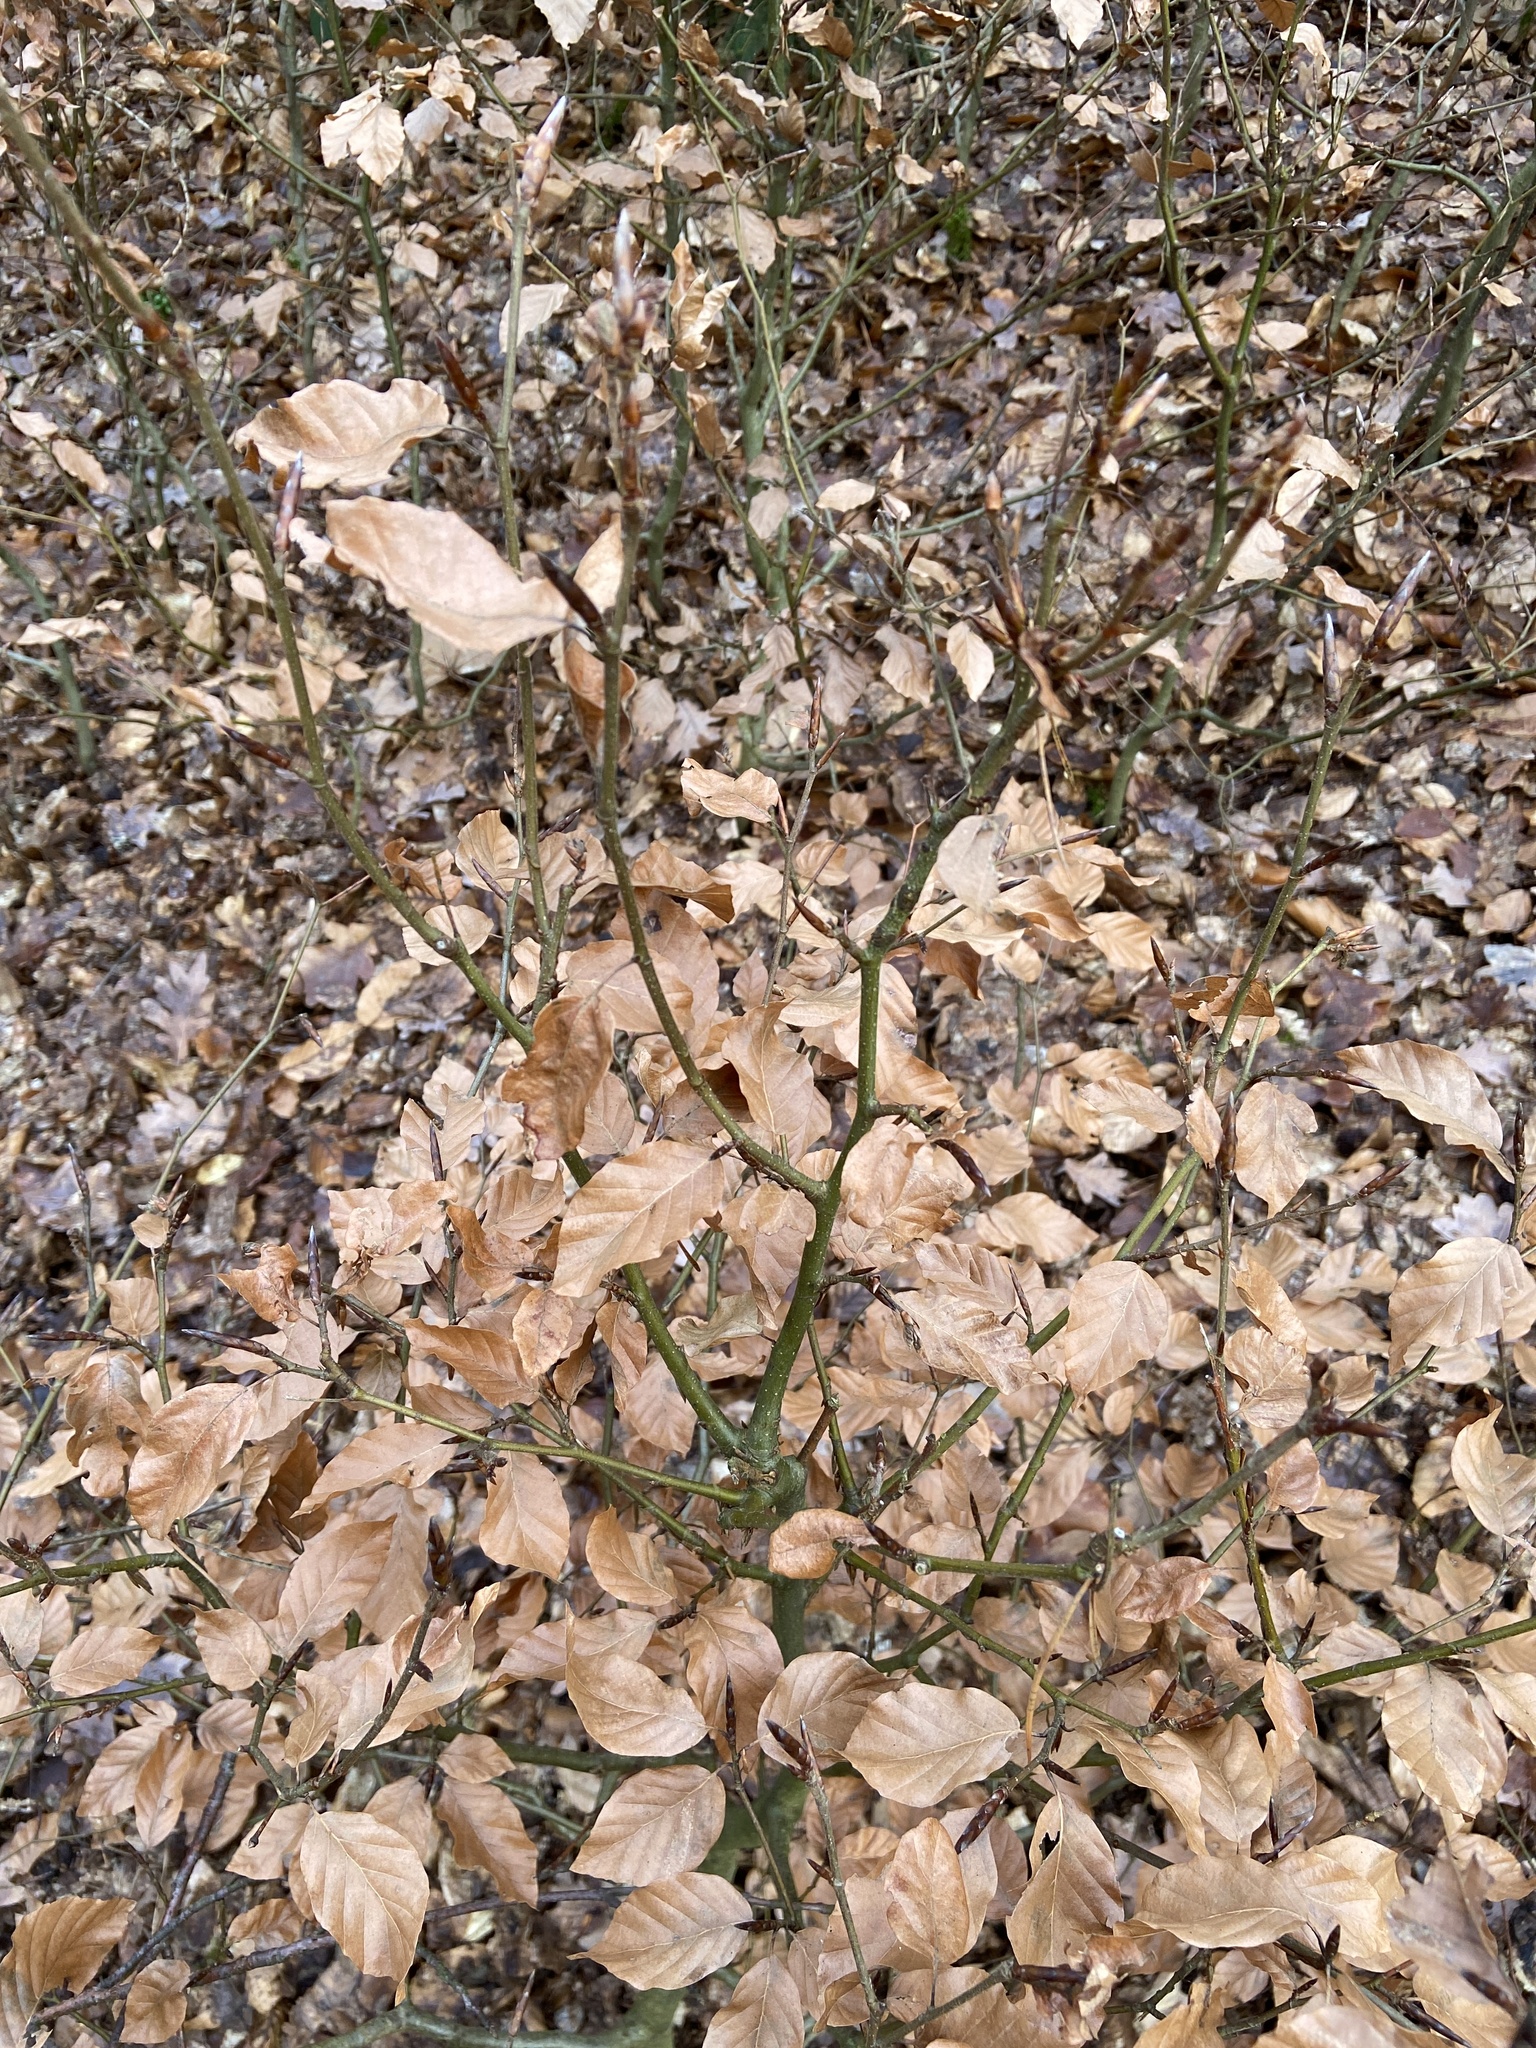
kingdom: Plantae
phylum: Tracheophyta
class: Magnoliopsida
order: Fagales
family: Fagaceae
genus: Fagus
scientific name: Fagus sylvatica
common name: Beech
